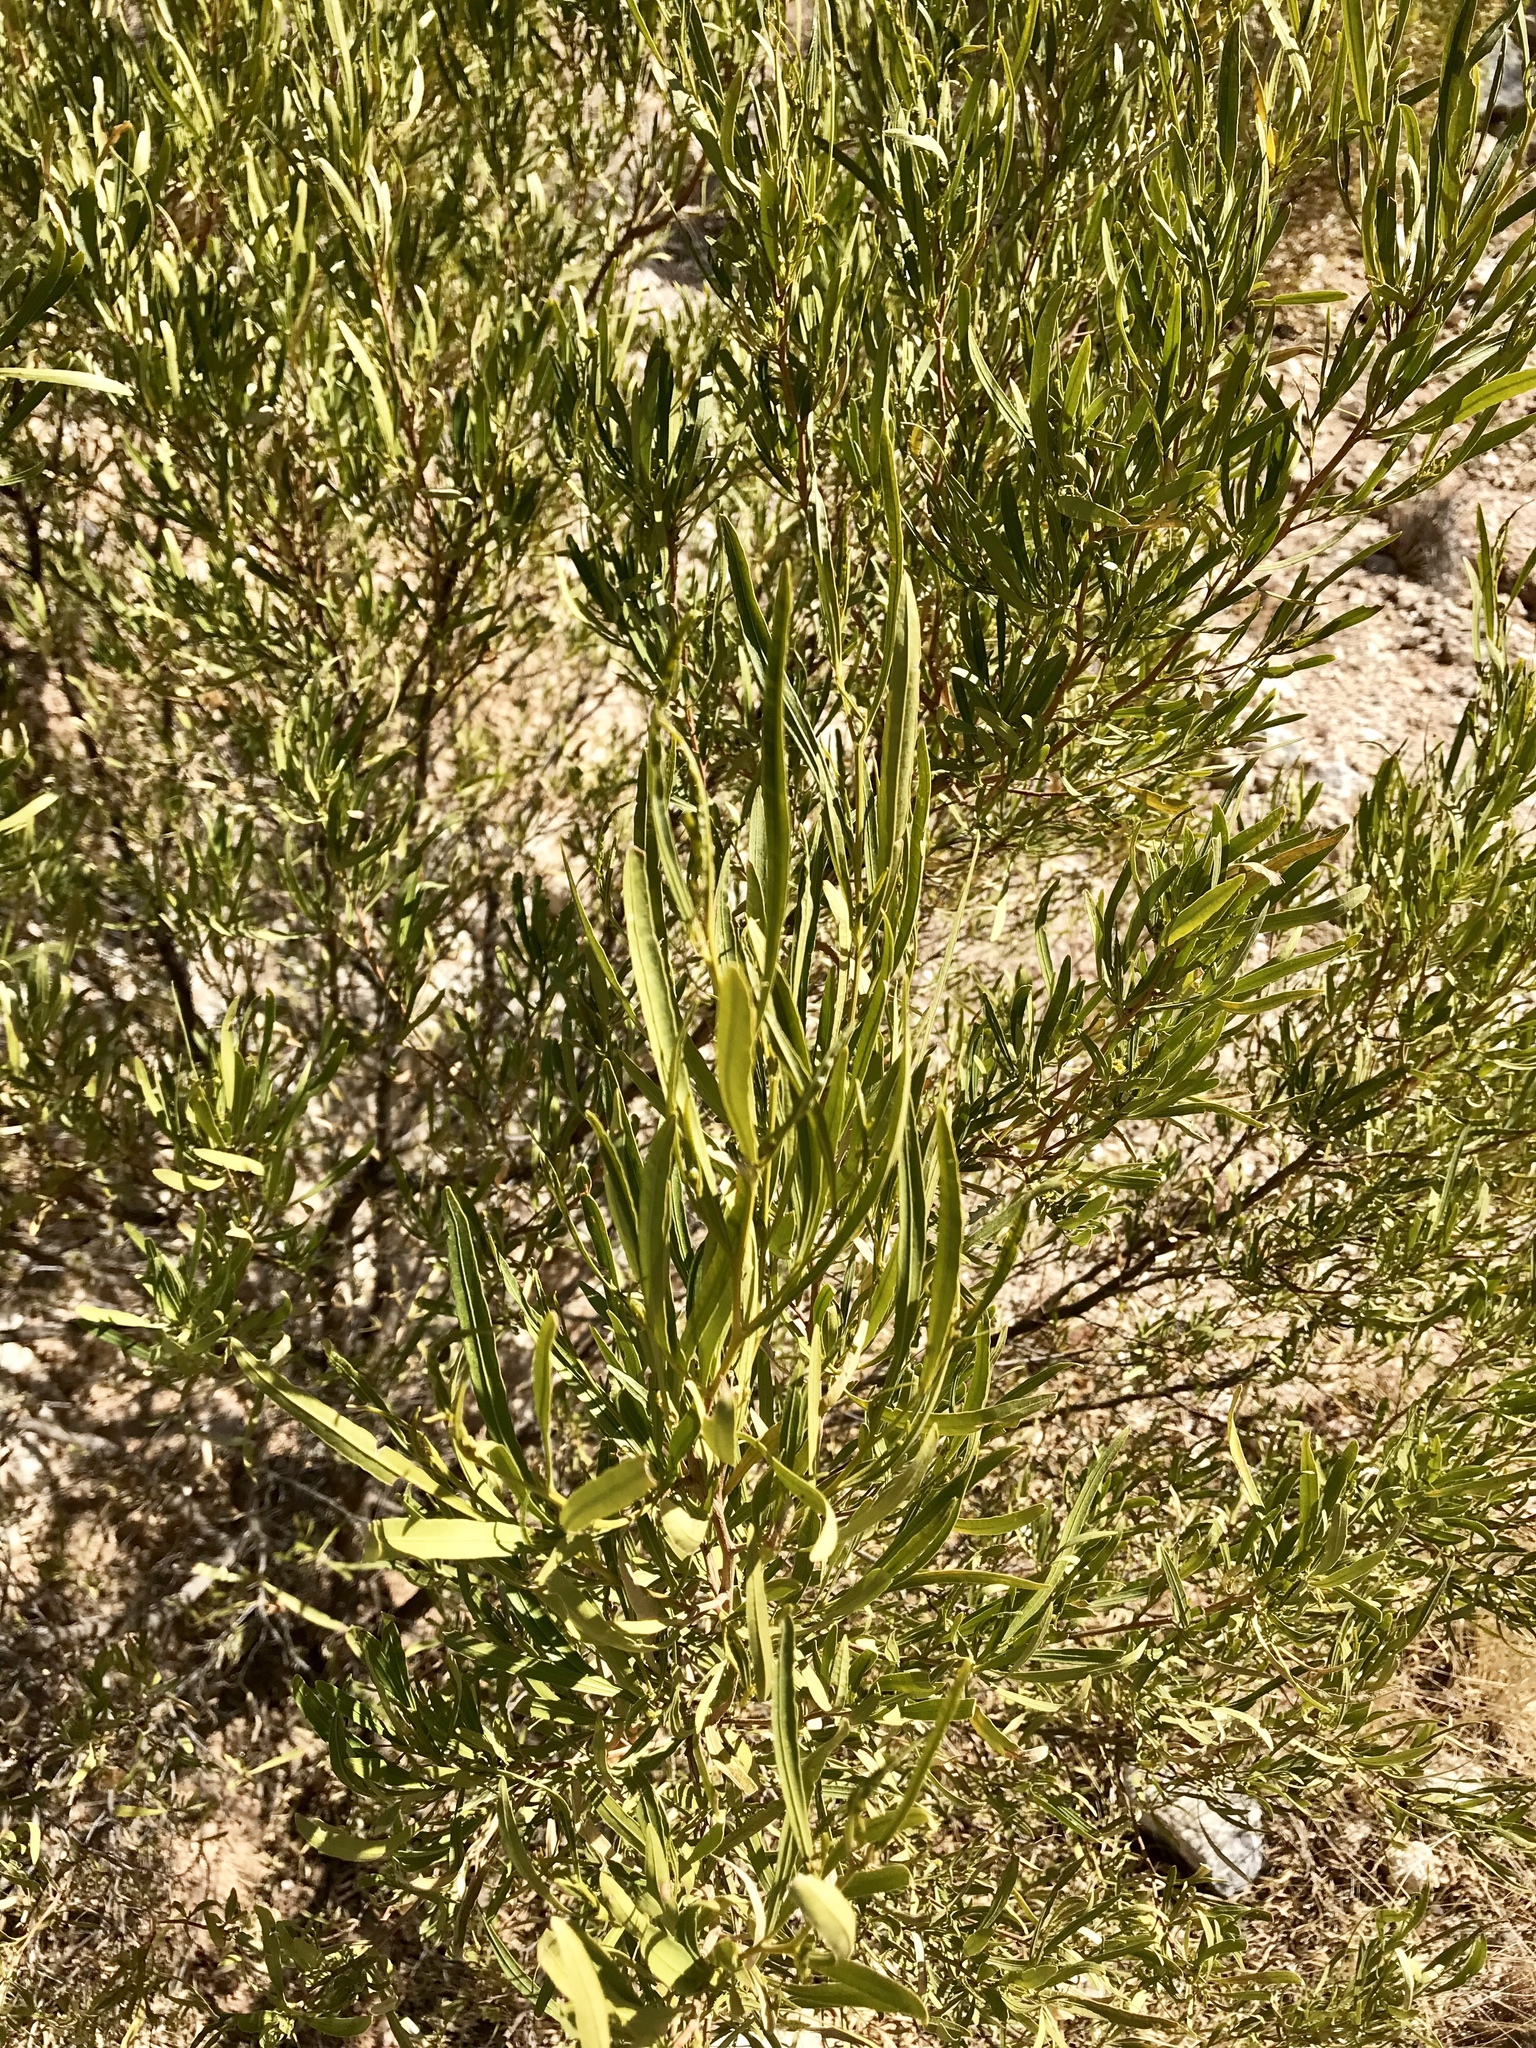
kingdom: Plantae
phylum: Tracheophyta
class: Magnoliopsida
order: Sapindales
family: Sapindaceae
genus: Dodonaea
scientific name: Dodonaea viscosa
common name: Hopbush
